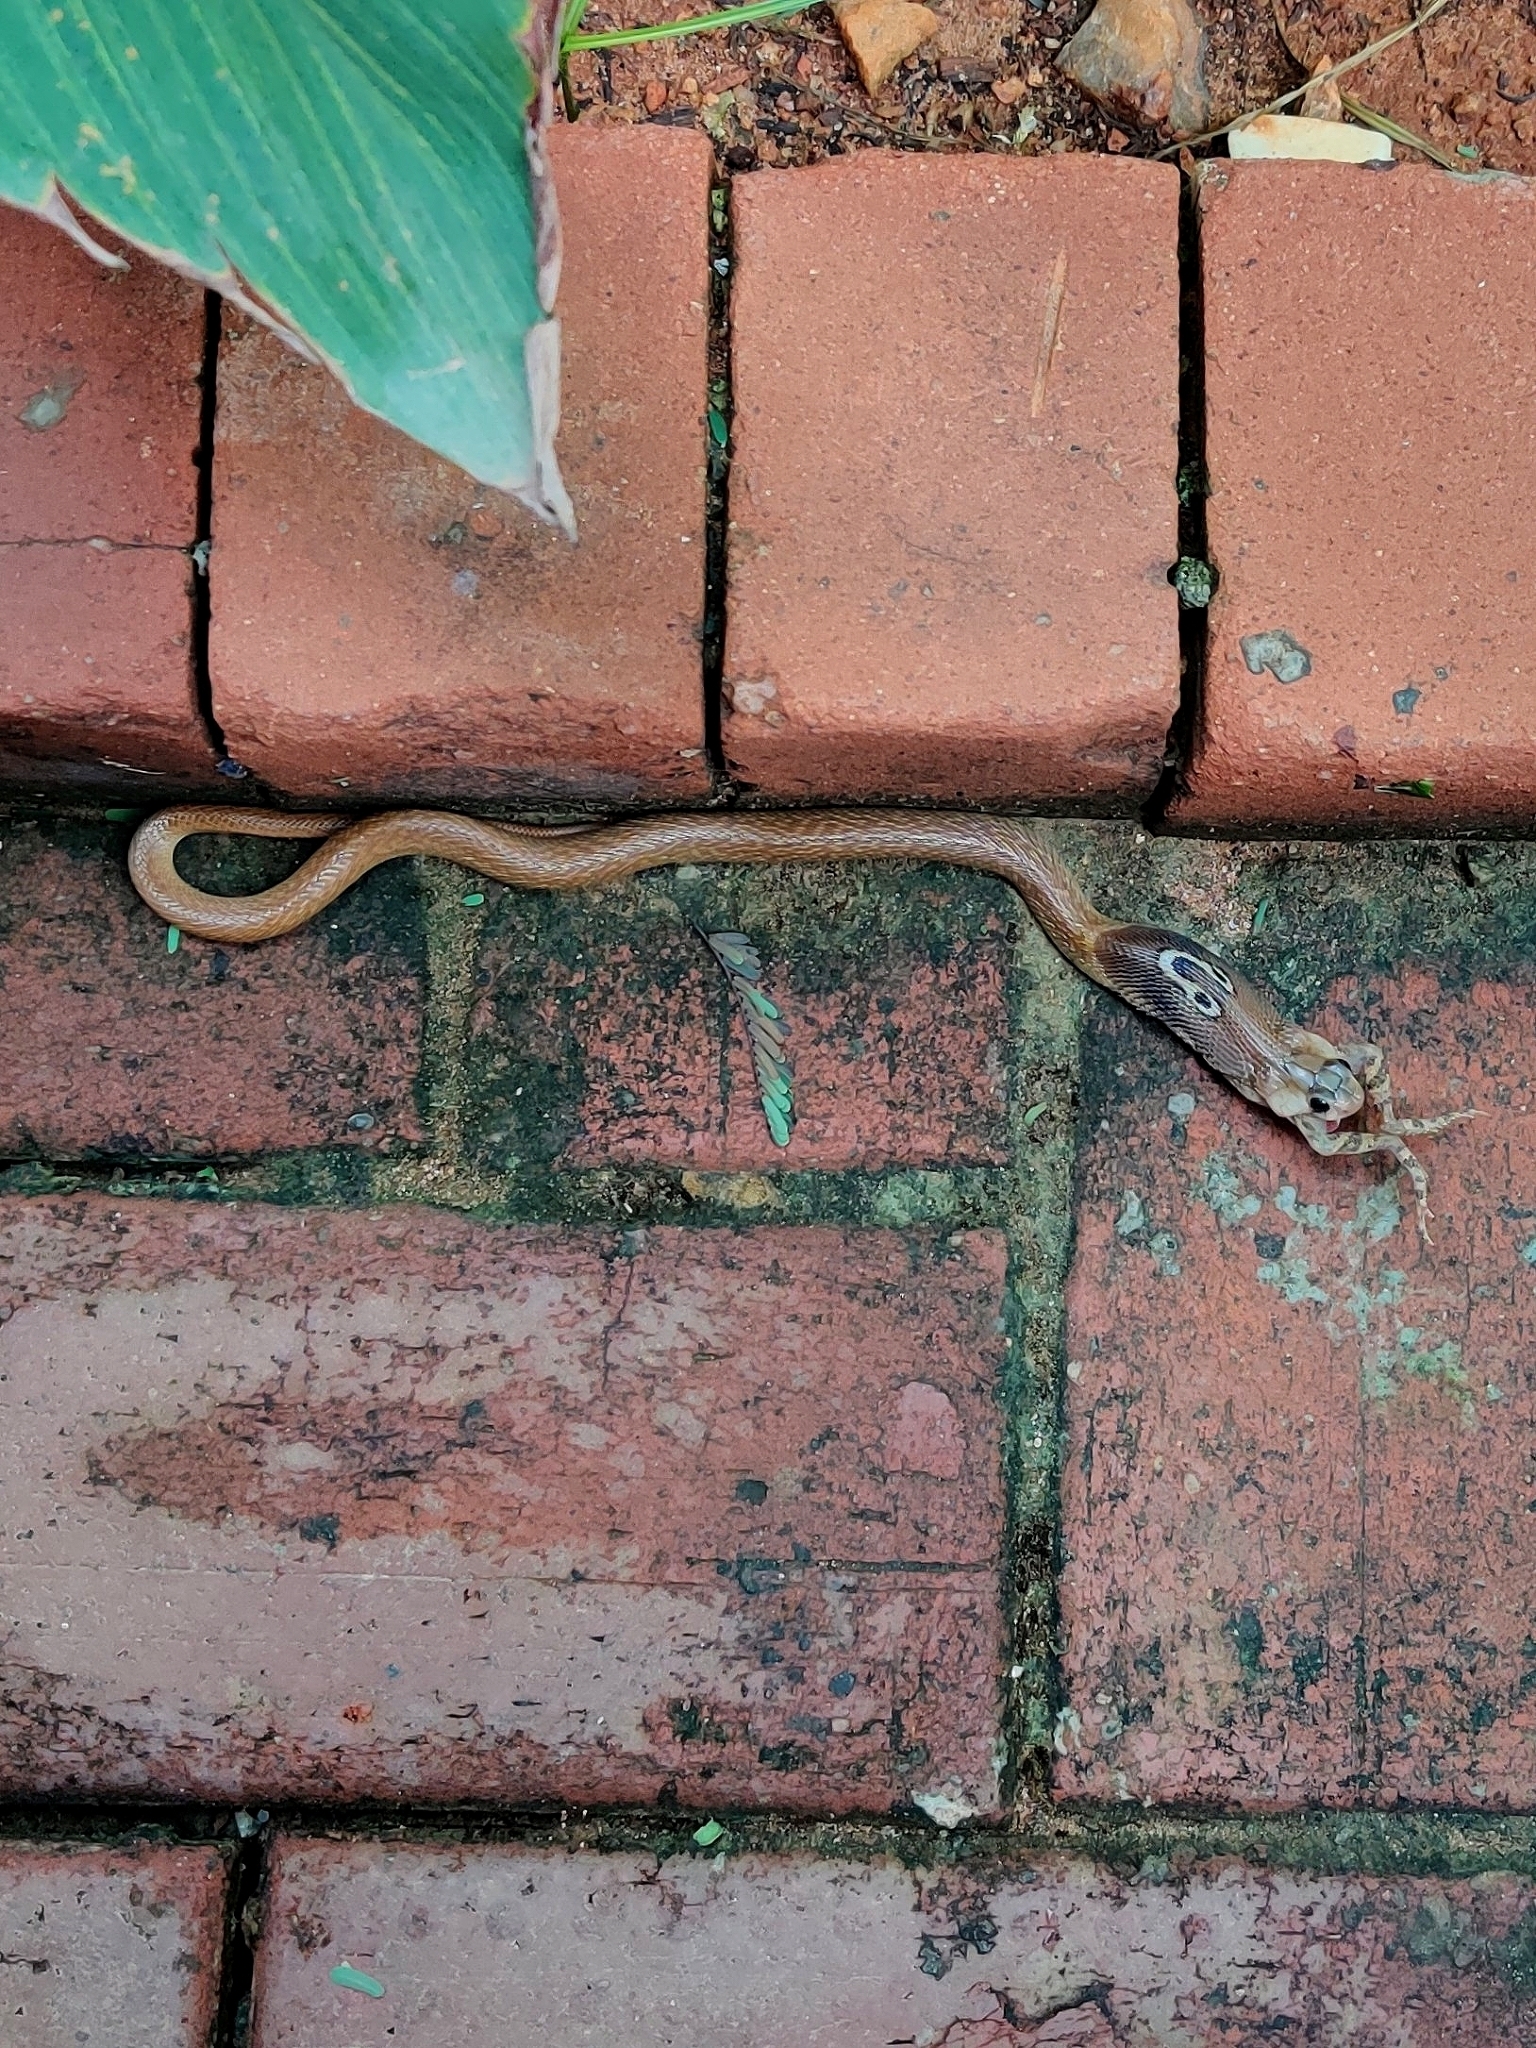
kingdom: Animalia
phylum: Chordata
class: Squamata
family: Elapidae
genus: Naja
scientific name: Naja naja
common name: Indian cobra
